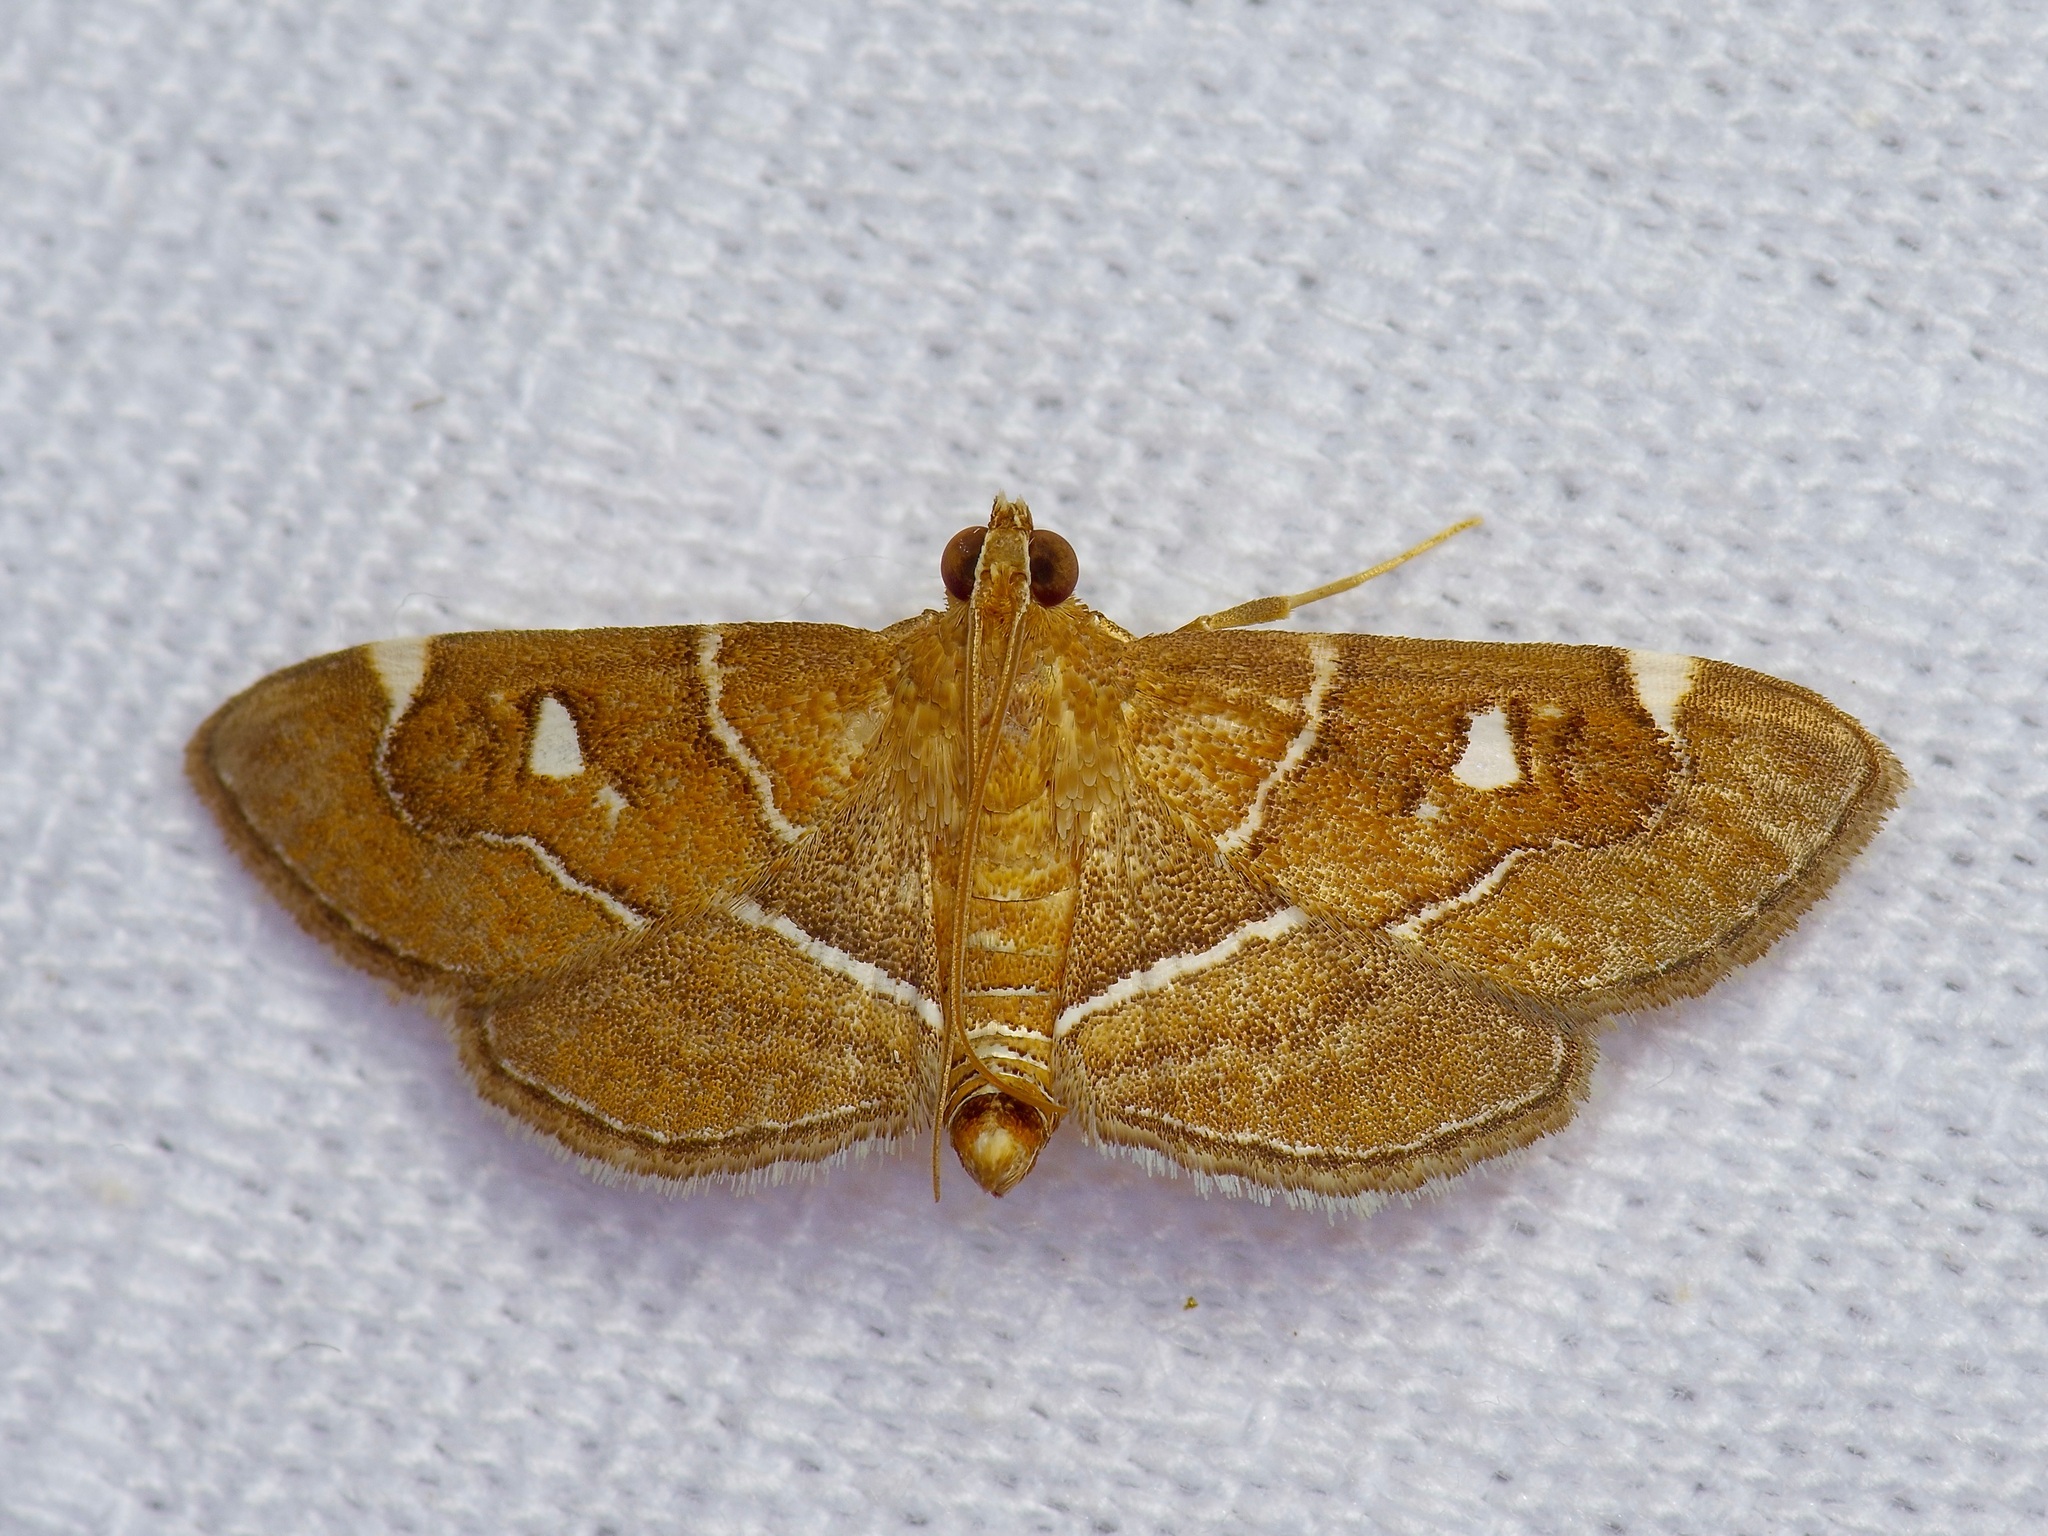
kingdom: Animalia
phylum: Arthropoda
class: Insecta
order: Lepidoptera
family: Crambidae
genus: Lamprosema
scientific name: Lamprosema victoriae
